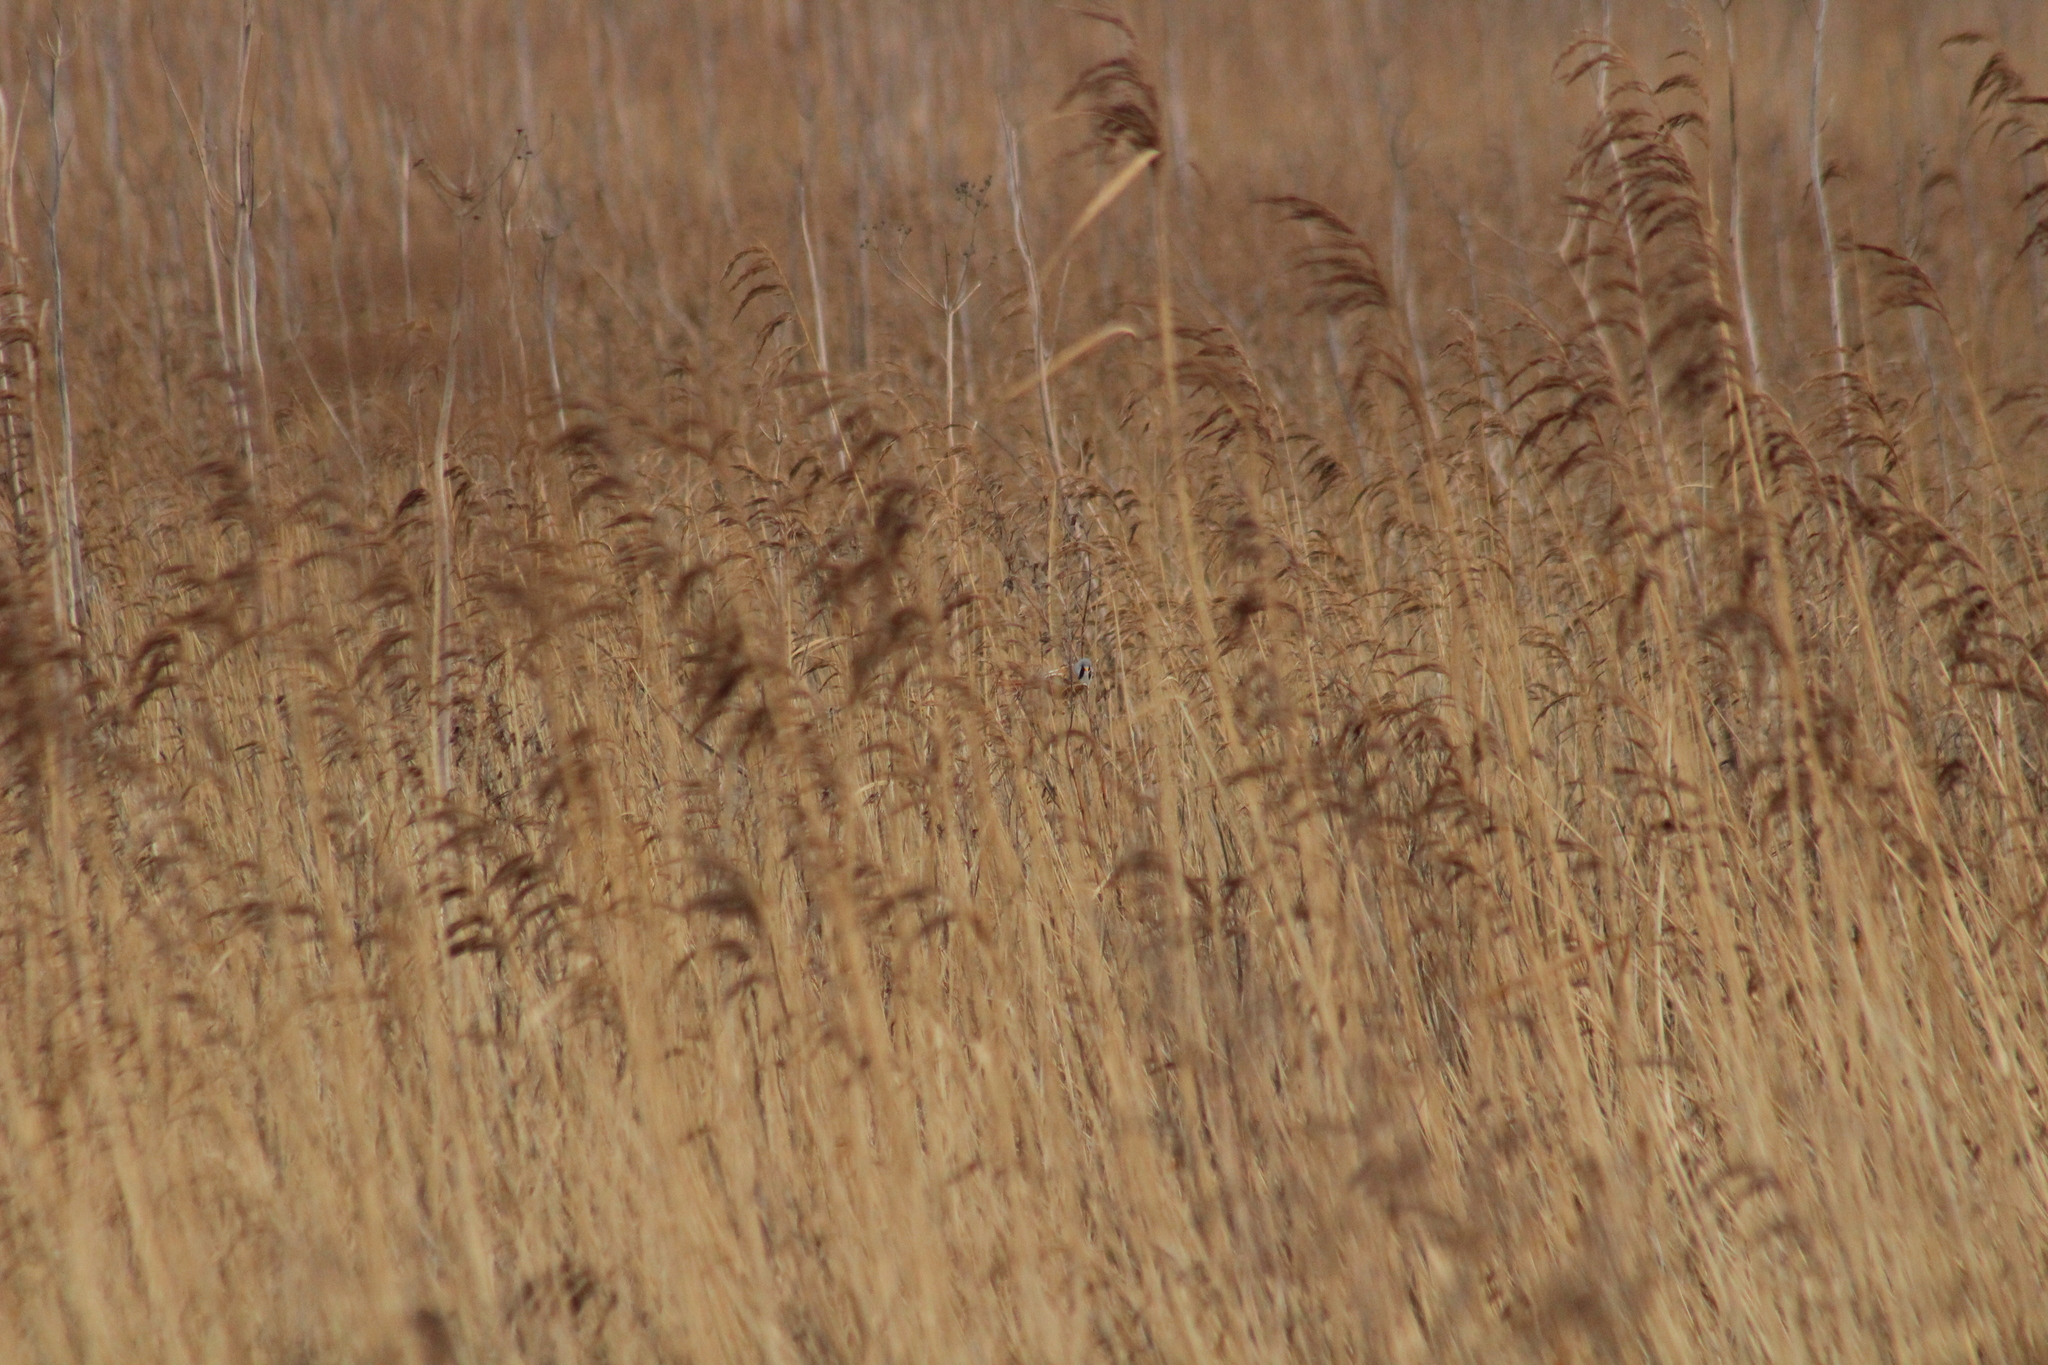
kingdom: Animalia
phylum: Chordata
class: Aves
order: Passeriformes
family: Panuridae
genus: Panurus
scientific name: Panurus biarmicus
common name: Bearded reedling
